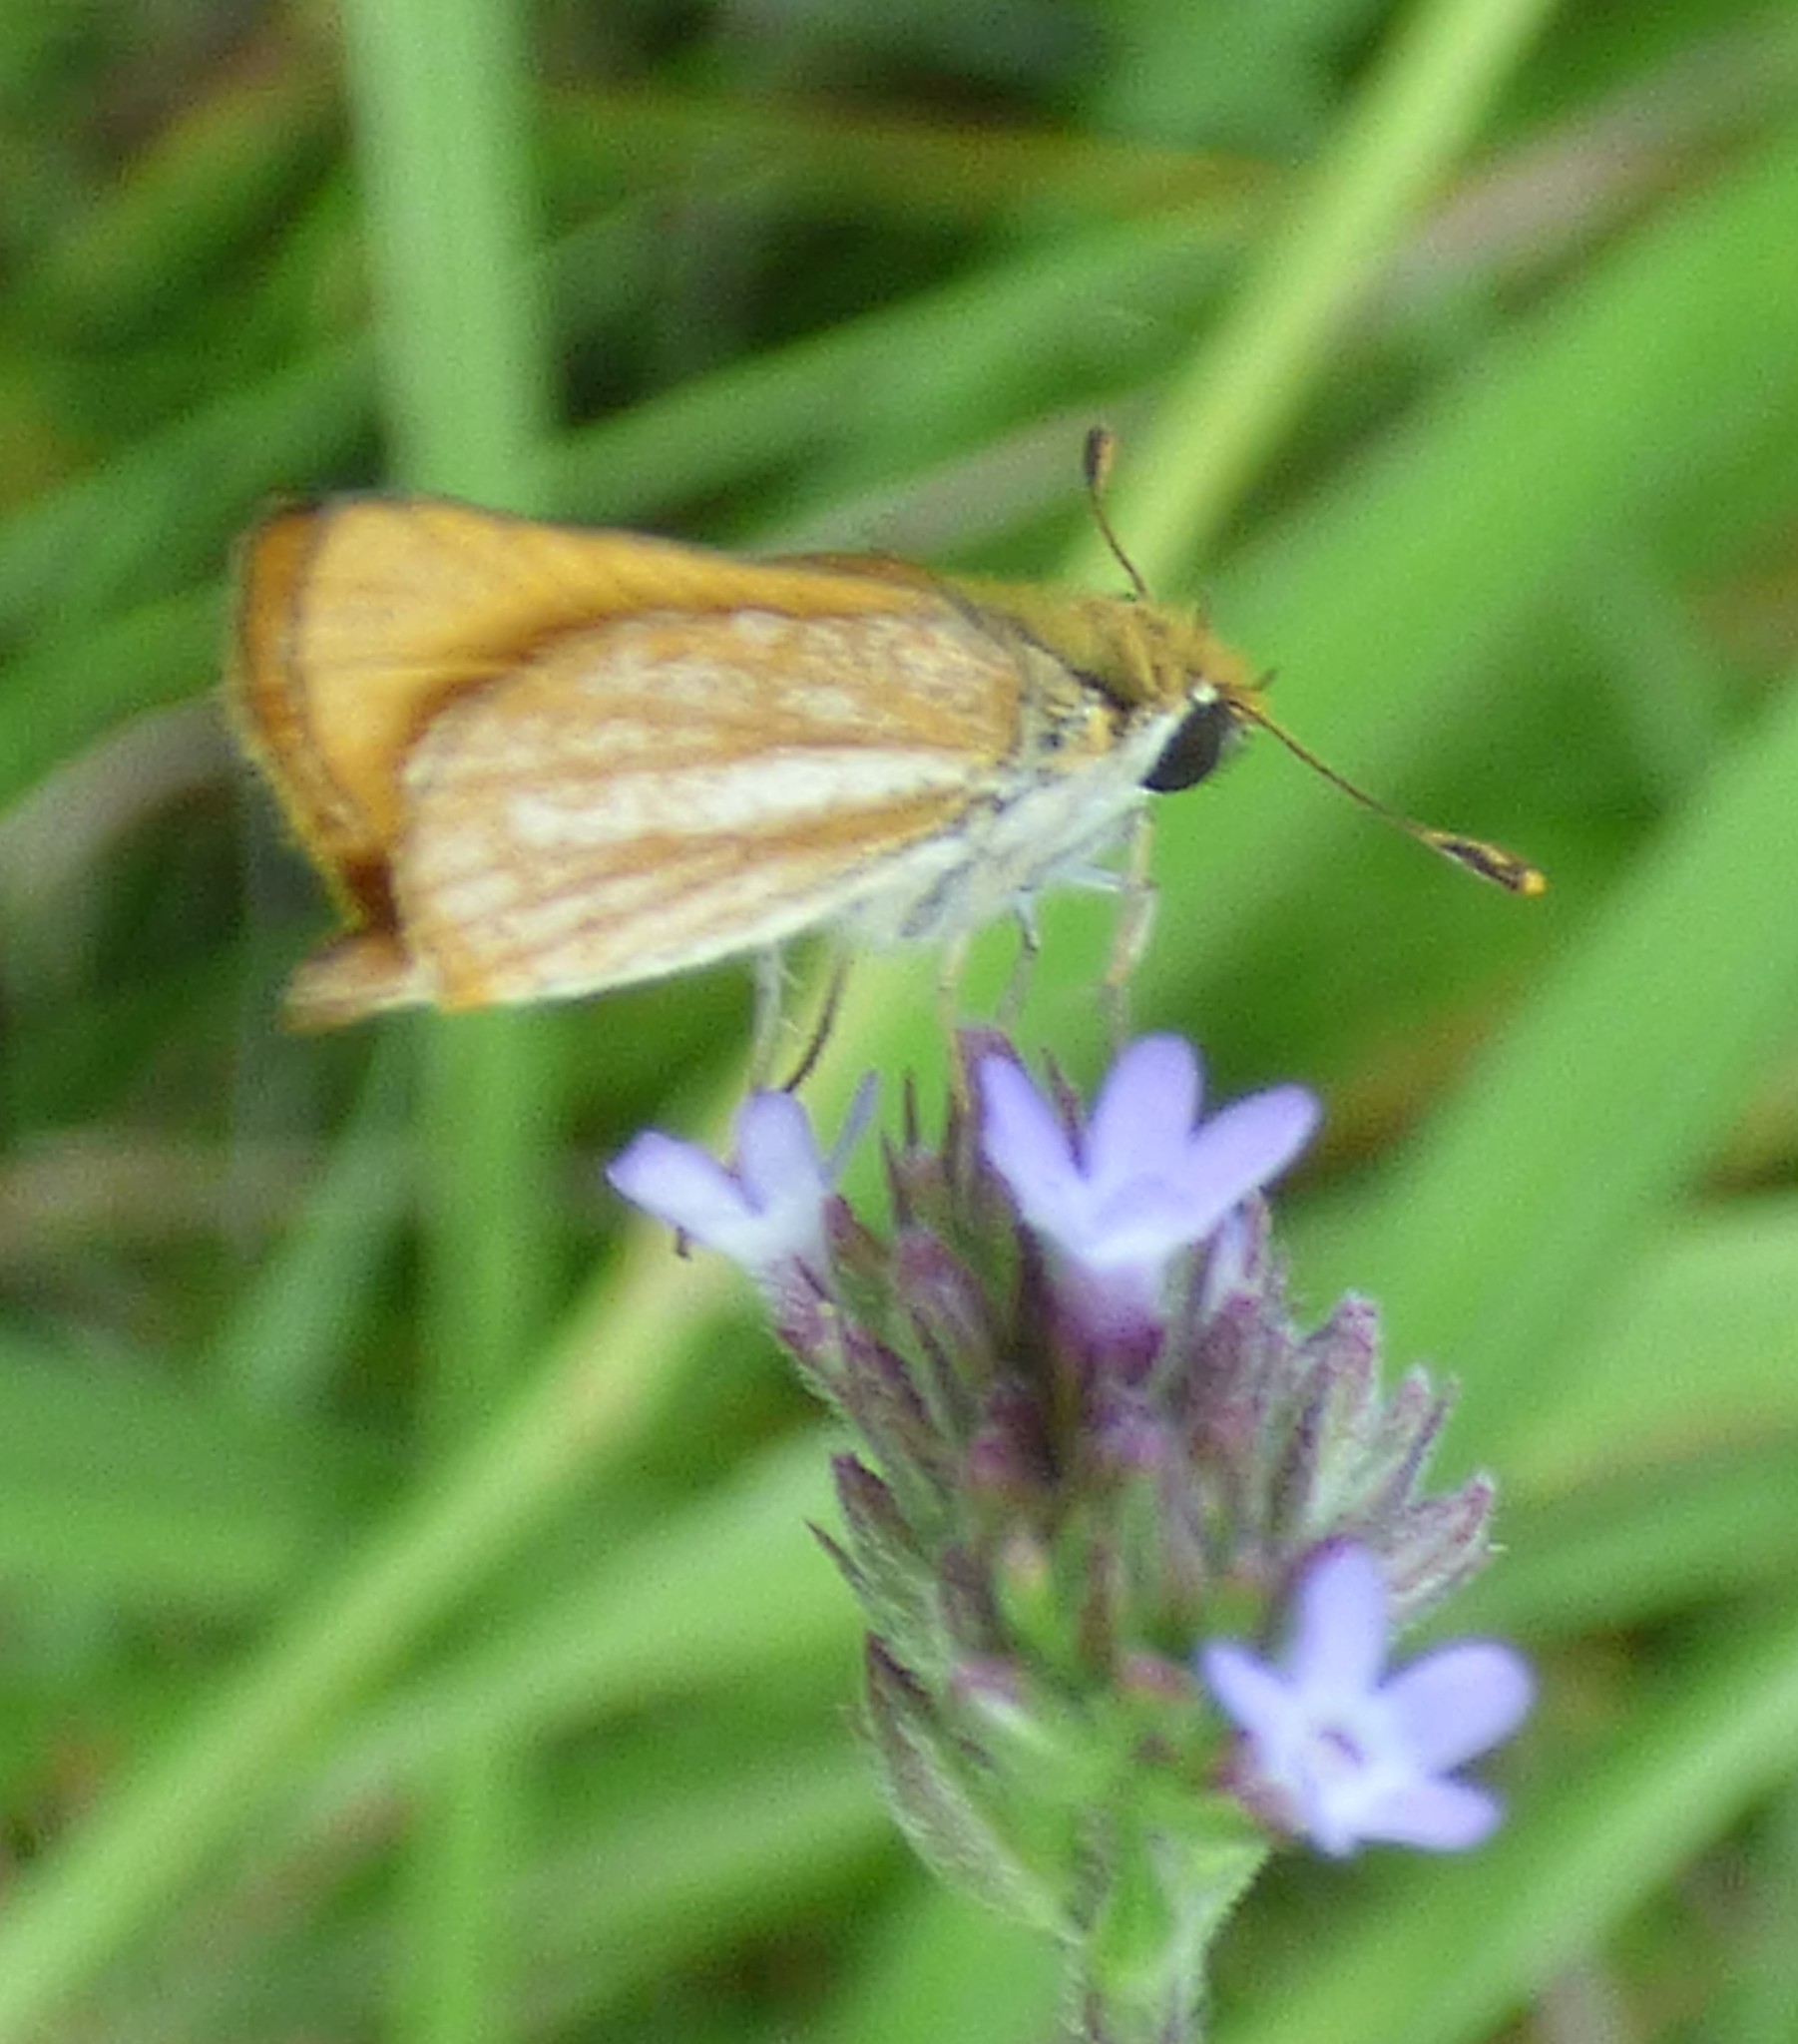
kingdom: Animalia
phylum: Arthropoda
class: Insecta
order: Lepidoptera
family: Hesperiidae
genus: Copaeodes
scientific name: Copaeodes minima
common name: Southern skipperling
